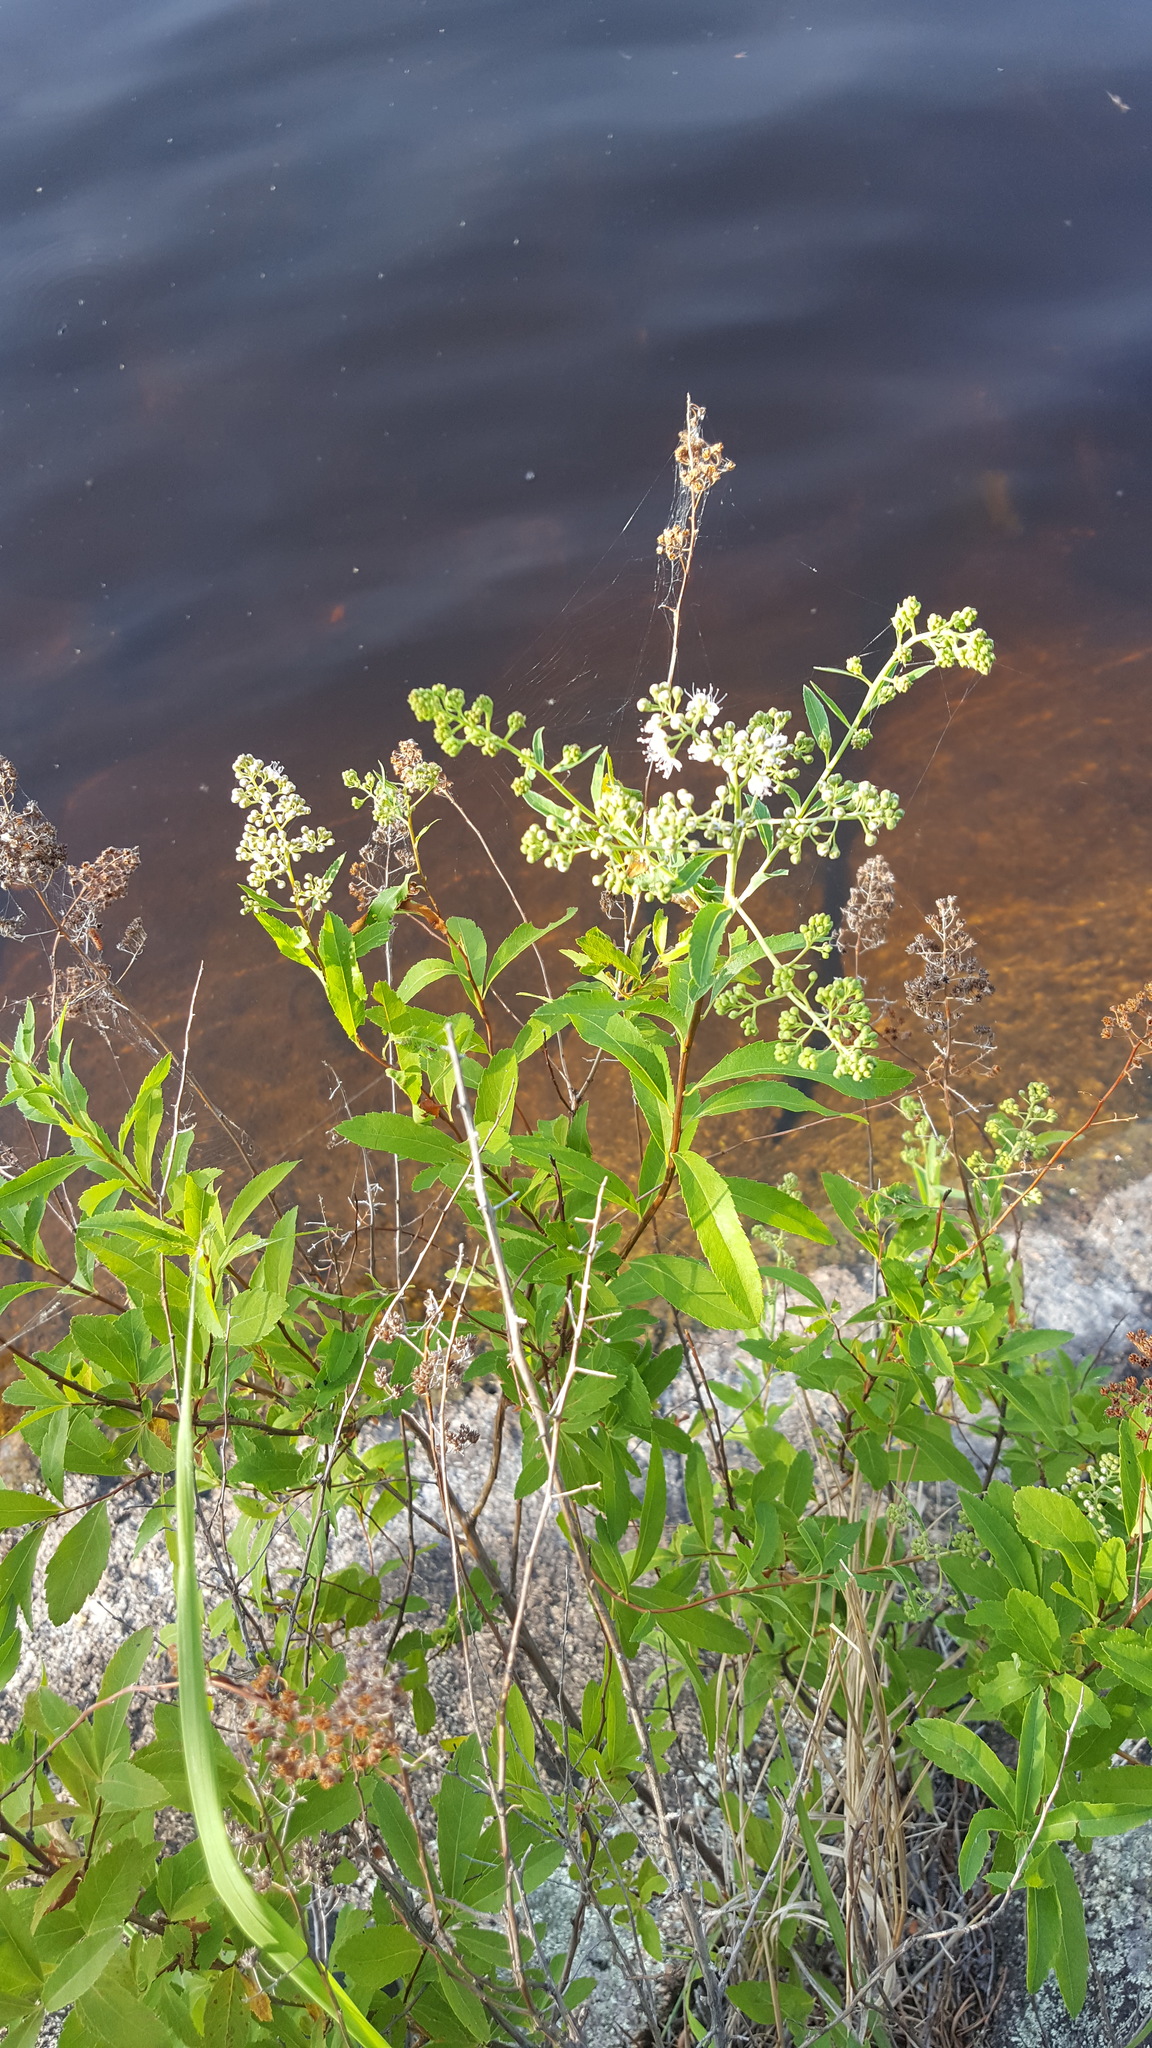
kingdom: Plantae
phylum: Tracheophyta
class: Magnoliopsida
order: Rosales
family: Rosaceae
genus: Spiraea
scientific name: Spiraea alba
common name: Pale bridewort
